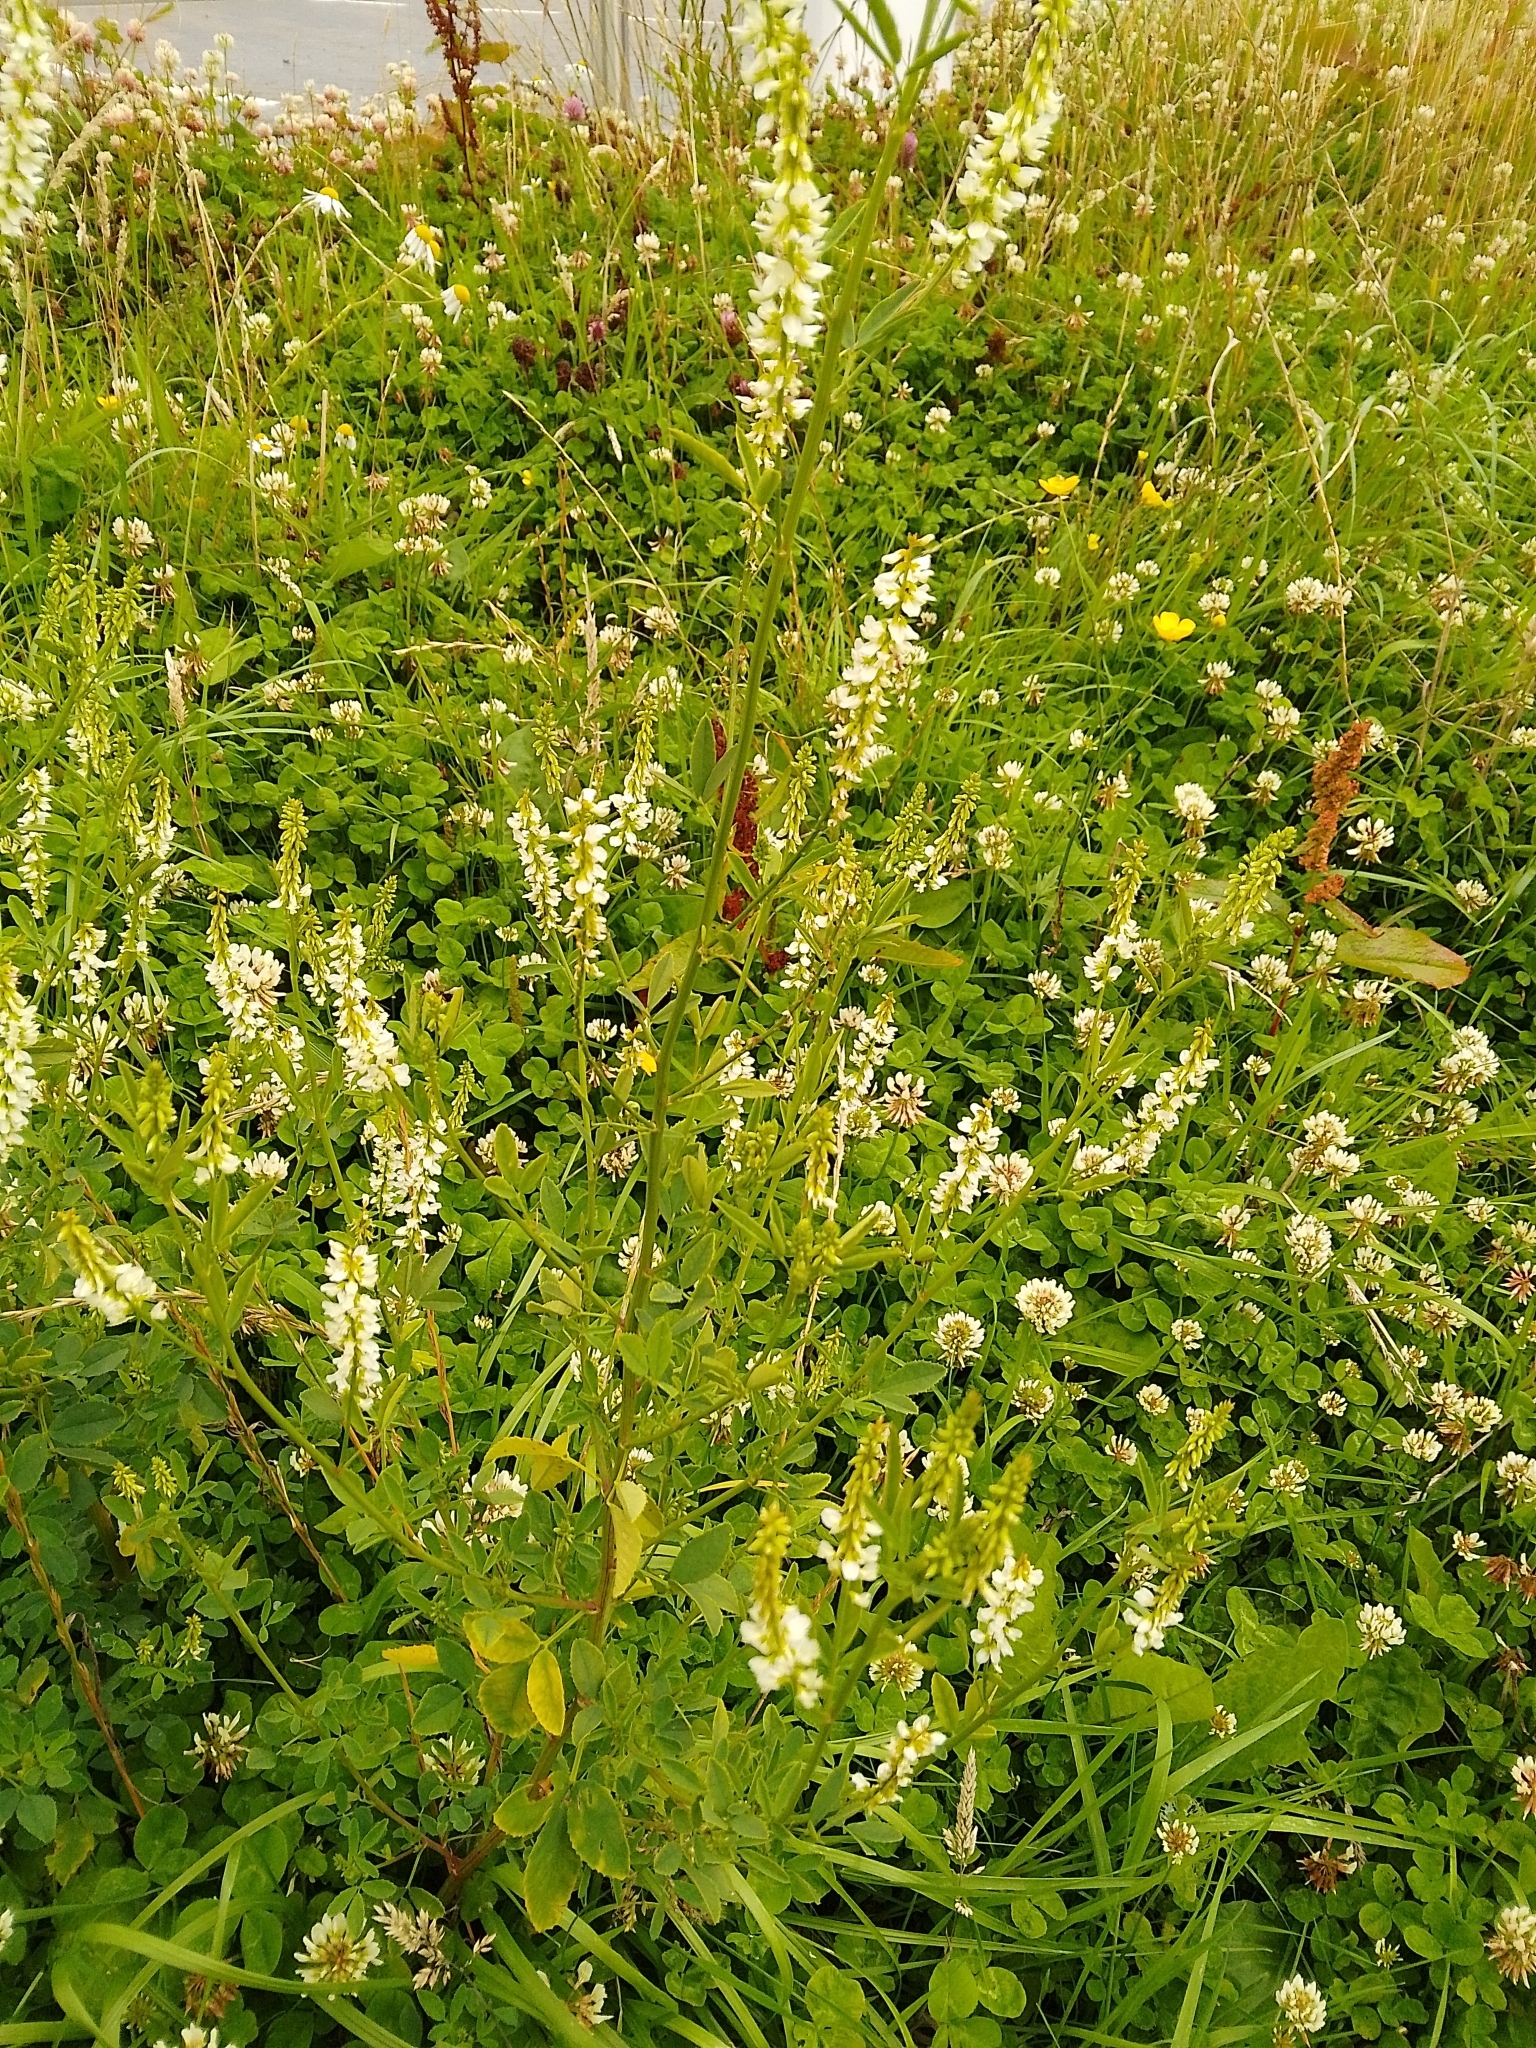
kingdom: Plantae
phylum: Tracheophyta
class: Magnoliopsida
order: Fabales
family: Fabaceae
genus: Melilotus
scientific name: Melilotus albus
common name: White melilot
